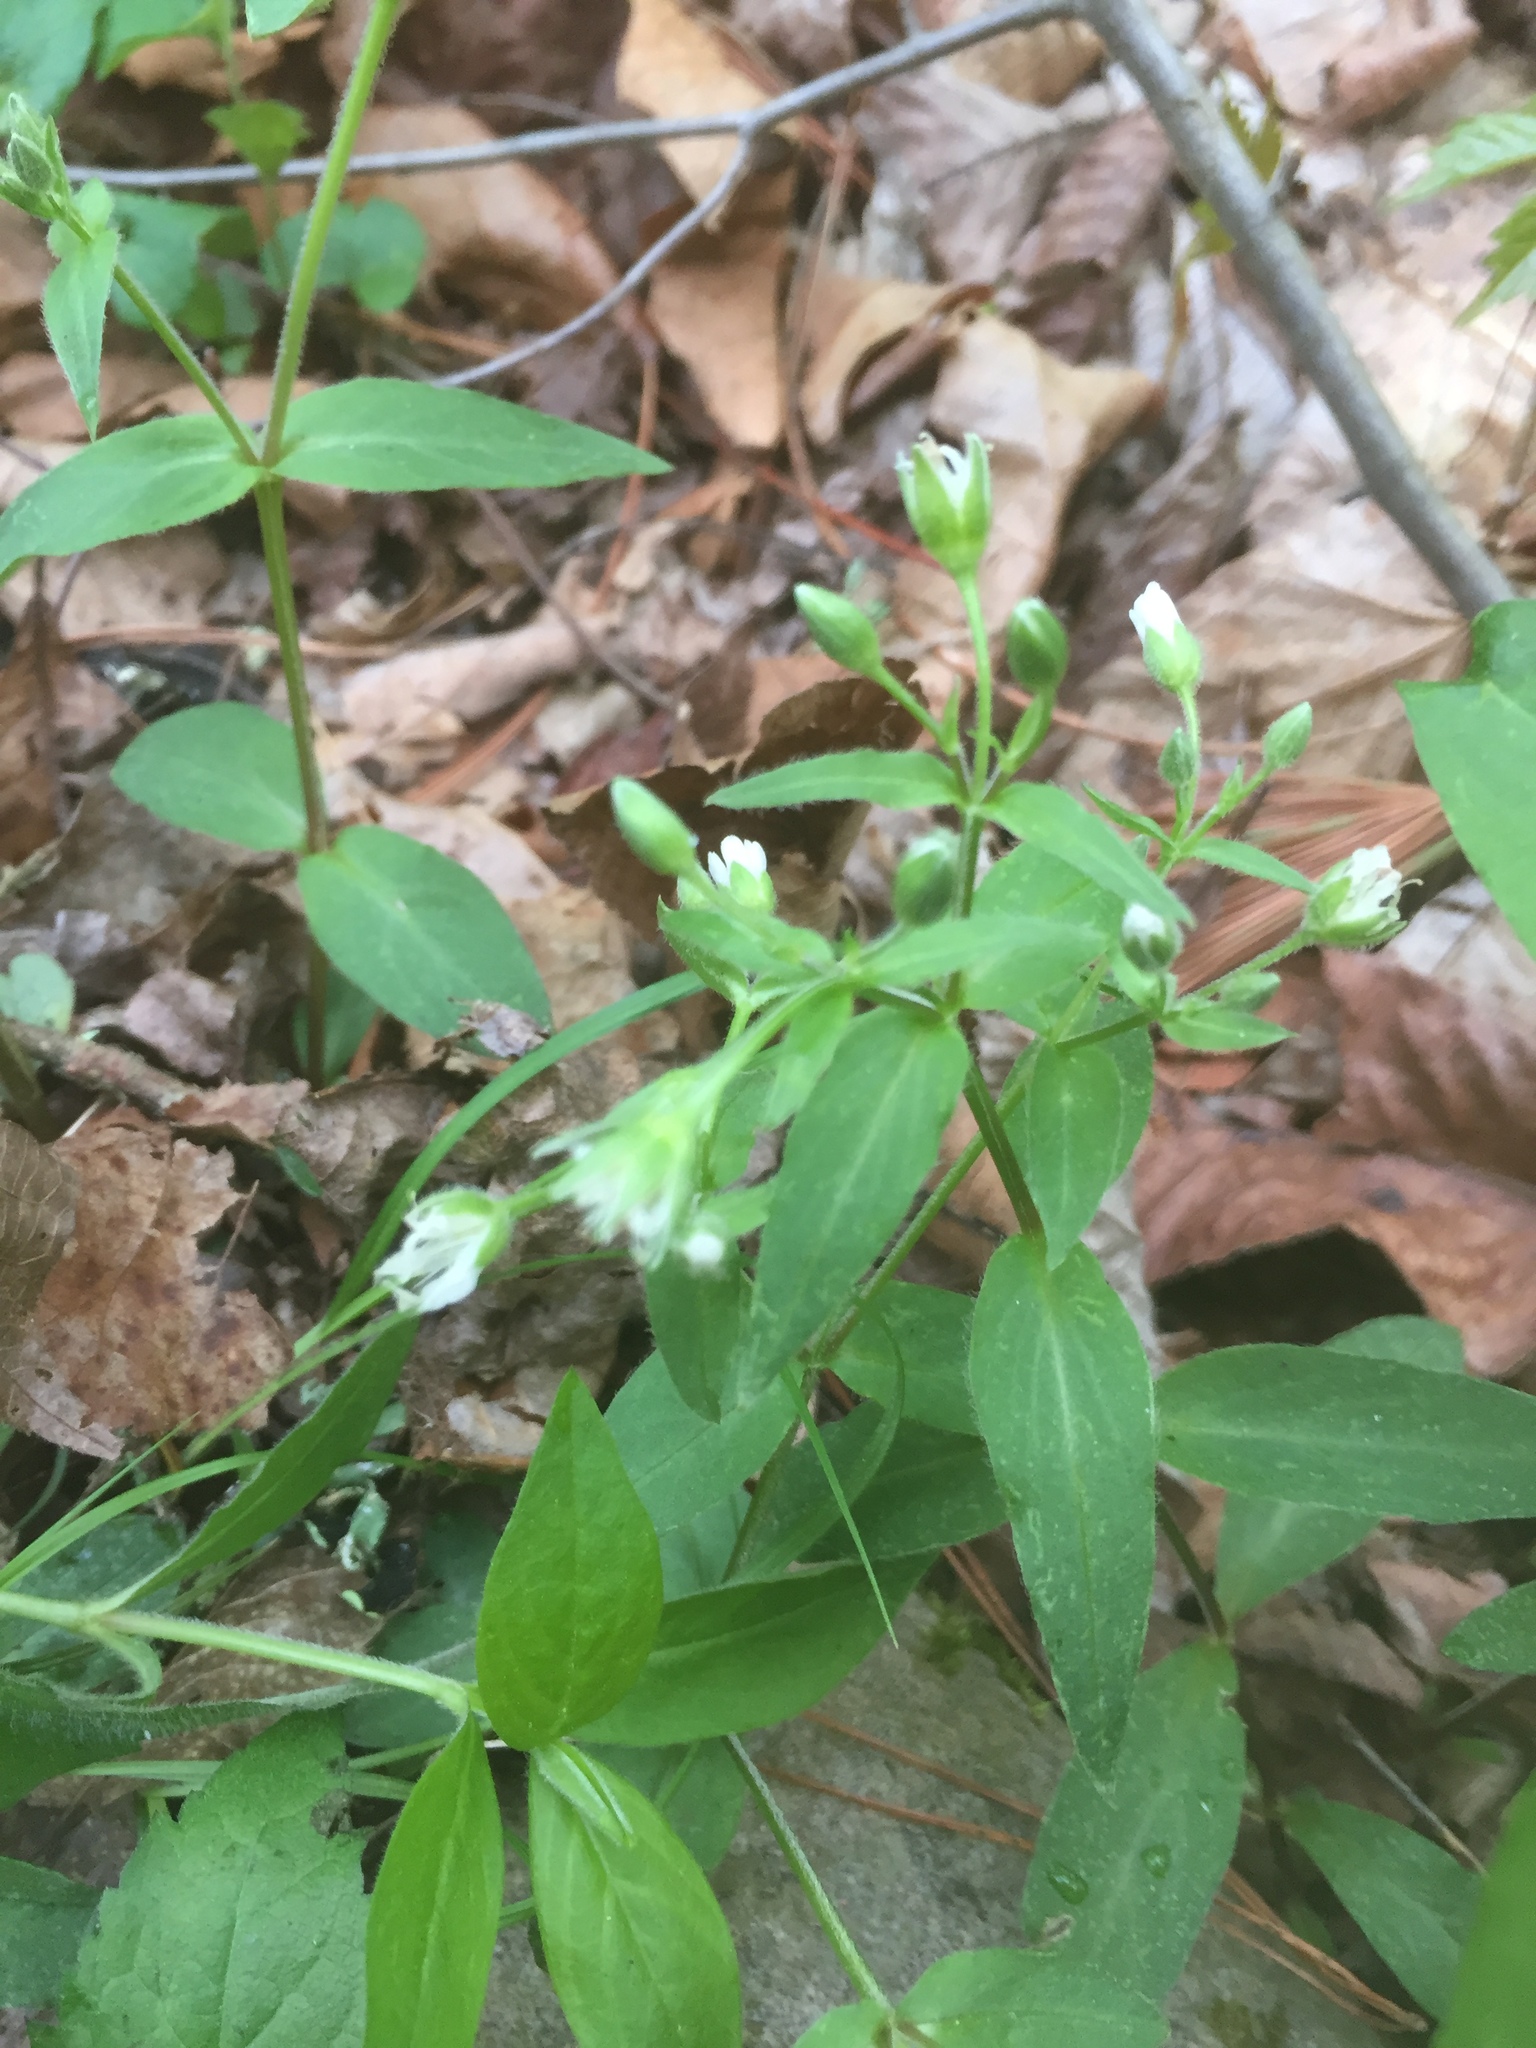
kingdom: Plantae
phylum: Tracheophyta
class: Magnoliopsida
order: Caryophyllales
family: Caryophyllaceae
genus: Stellaria
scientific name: Stellaria pubera
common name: Star chickweed
